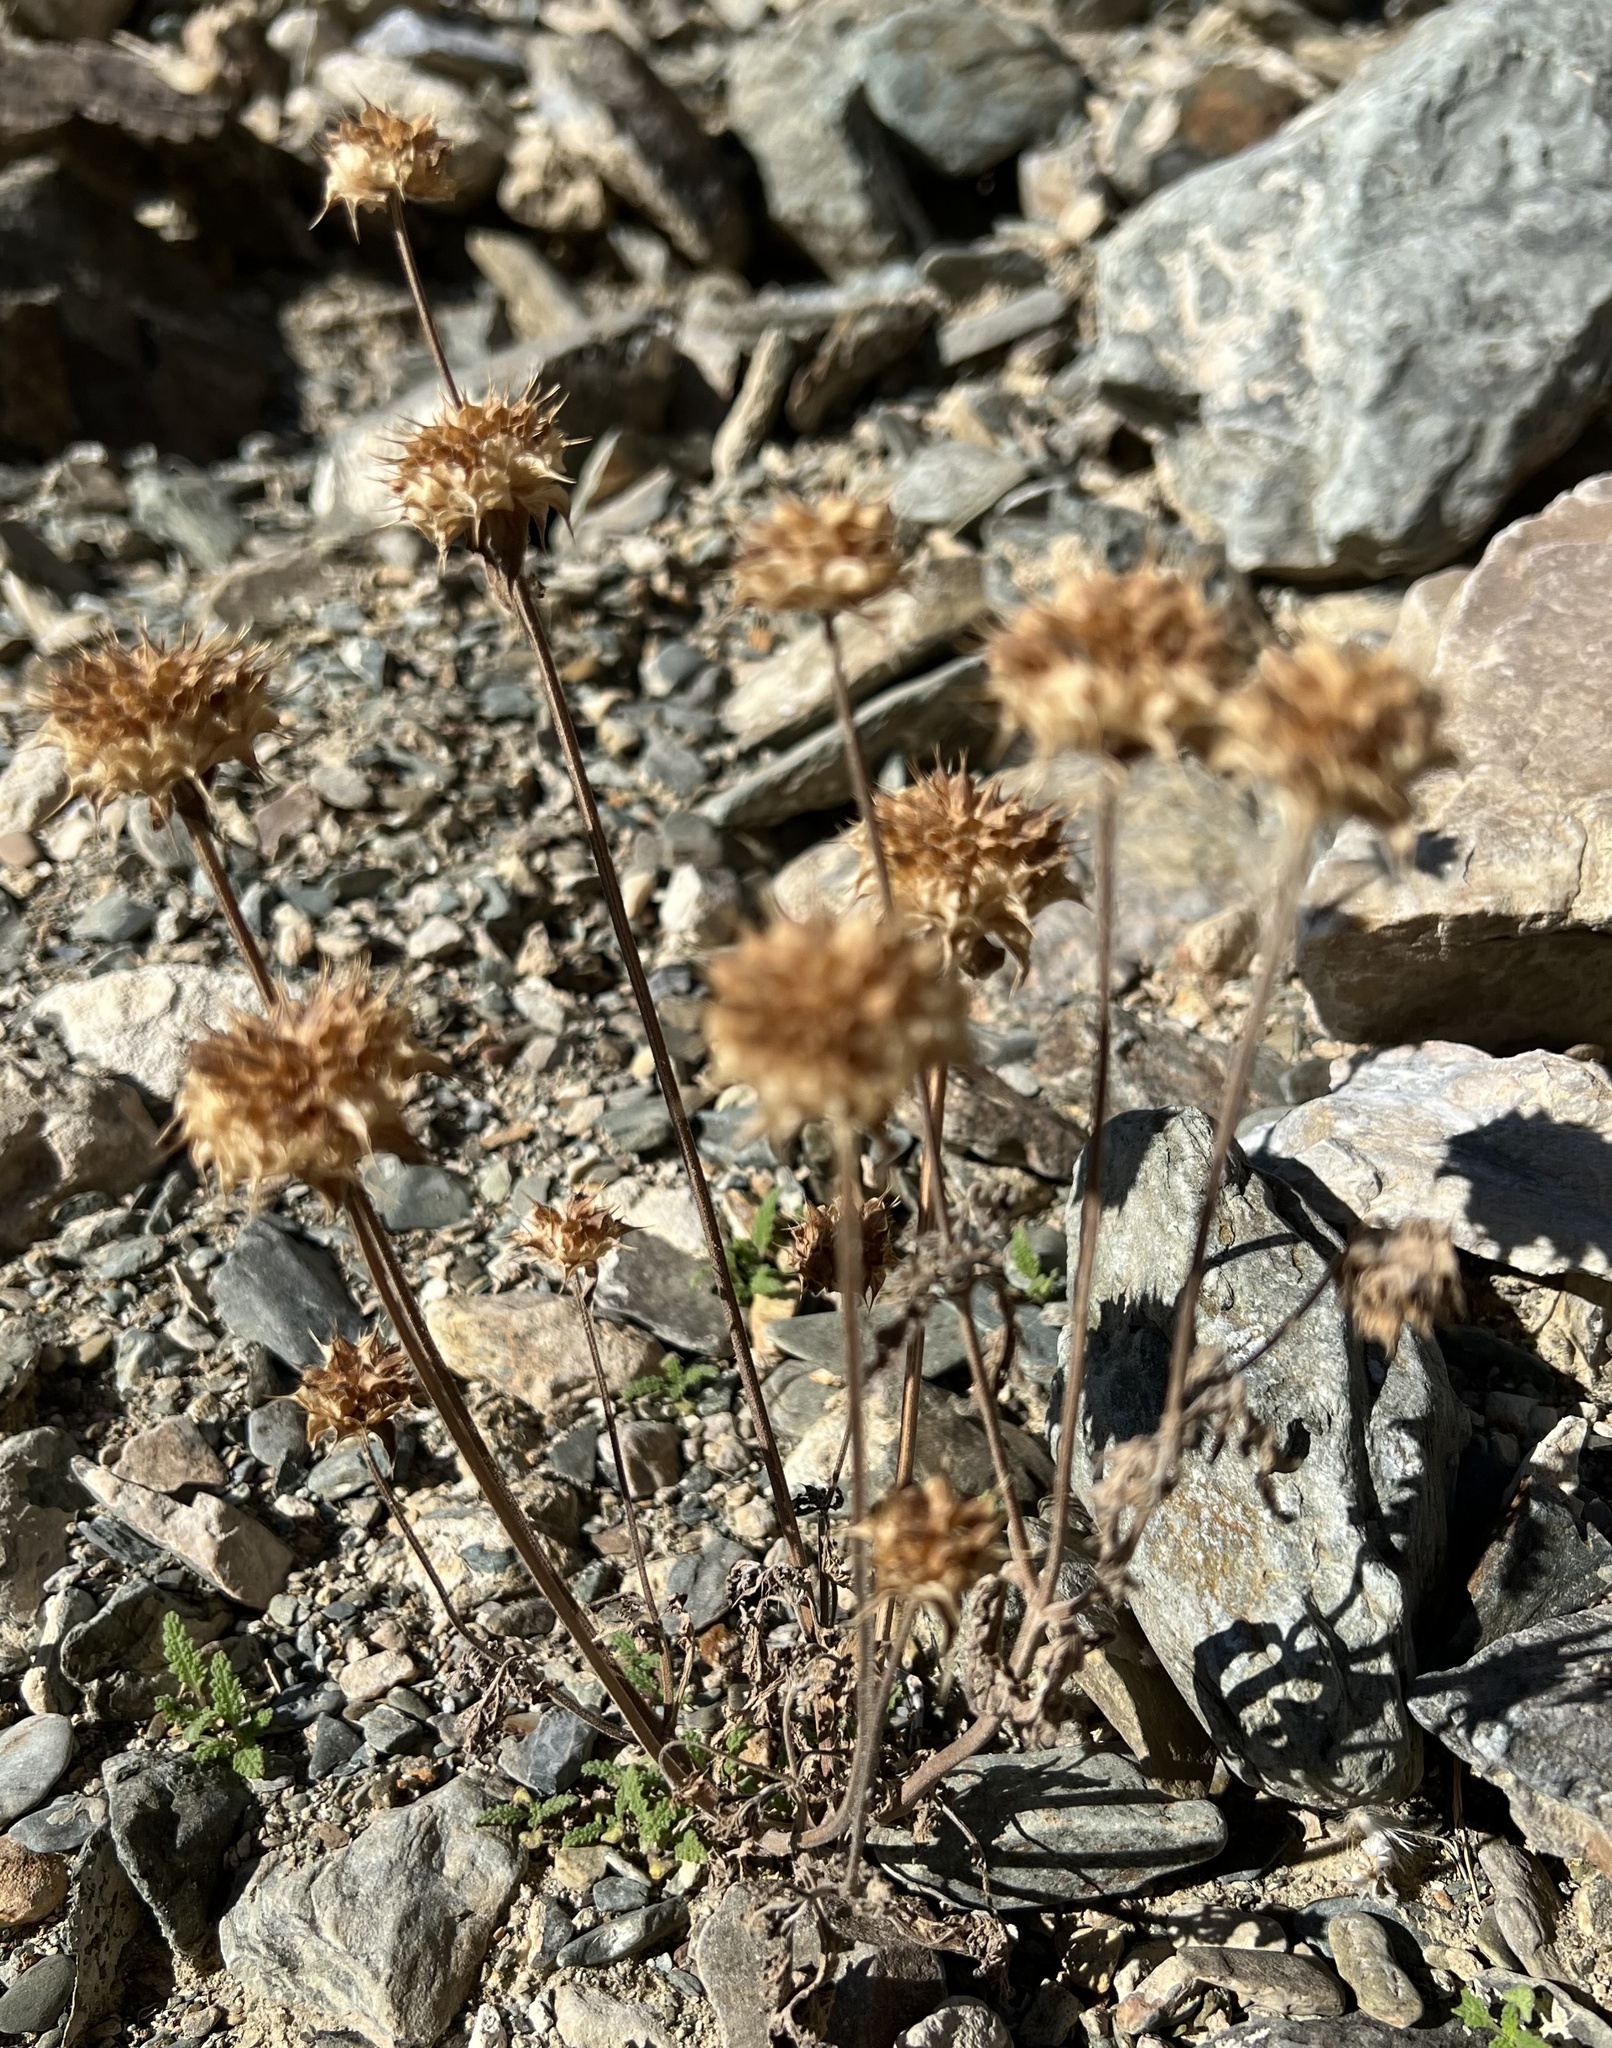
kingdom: Plantae
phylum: Tracheophyta
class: Magnoliopsida
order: Lamiales
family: Lamiaceae
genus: Salvia
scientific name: Salvia columbariae
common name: Chia
